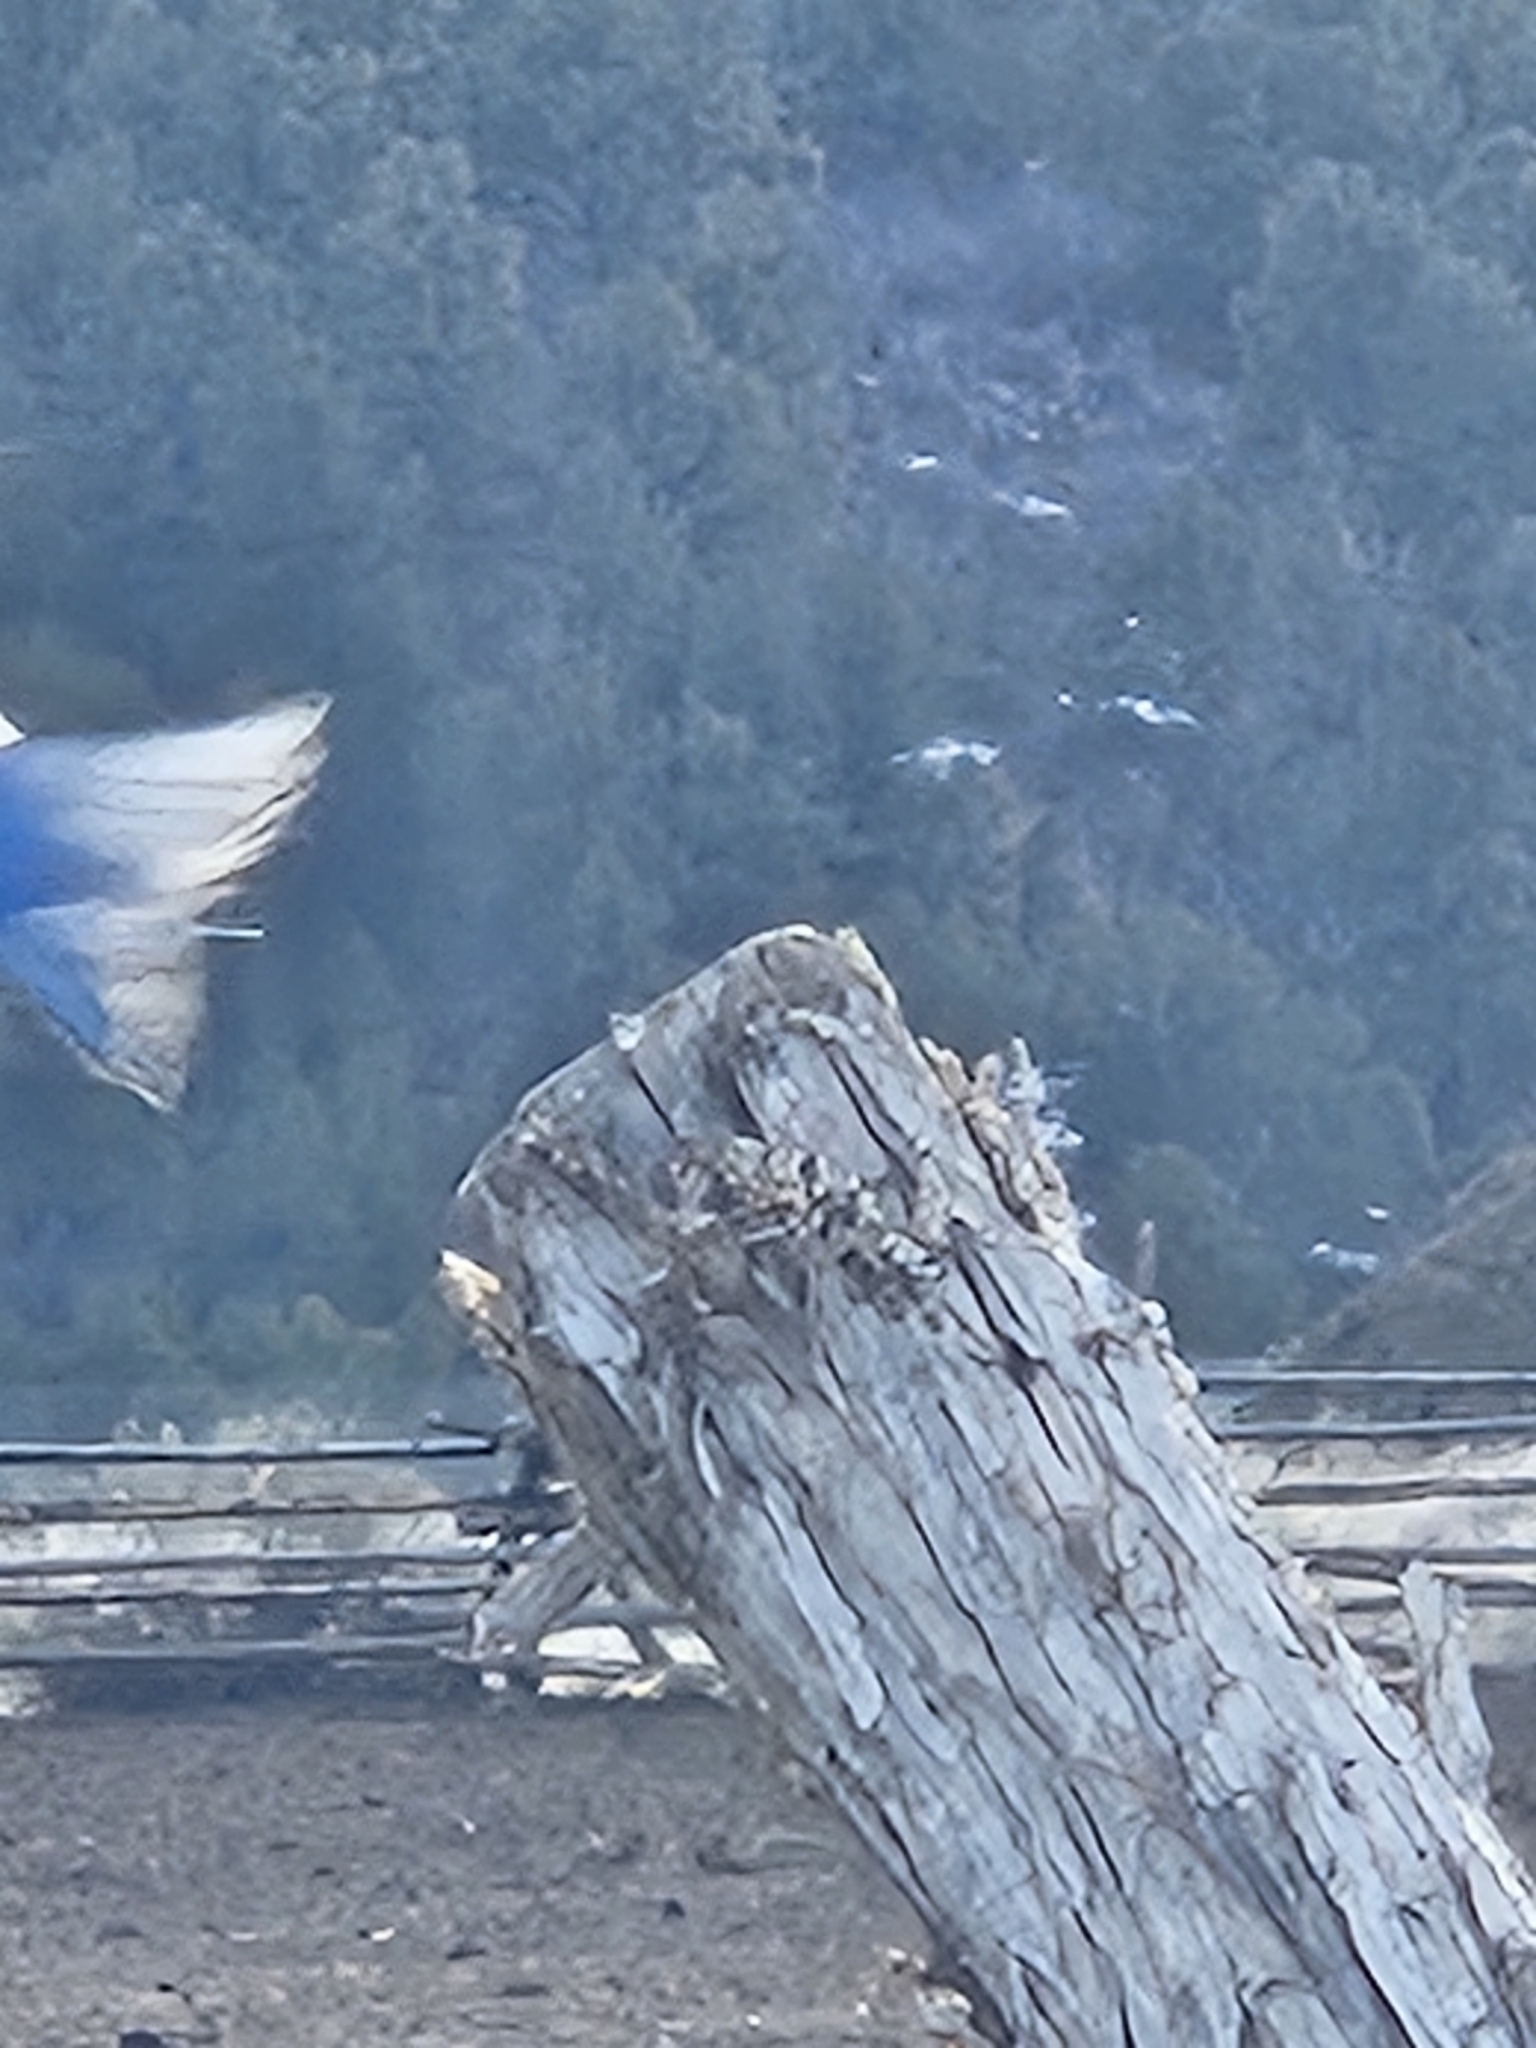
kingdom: Animalia
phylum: Chordata
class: Aves
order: Passeriformes
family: Turdidae
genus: Sialia
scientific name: Sialia currucoides
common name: Mountain bluebird
